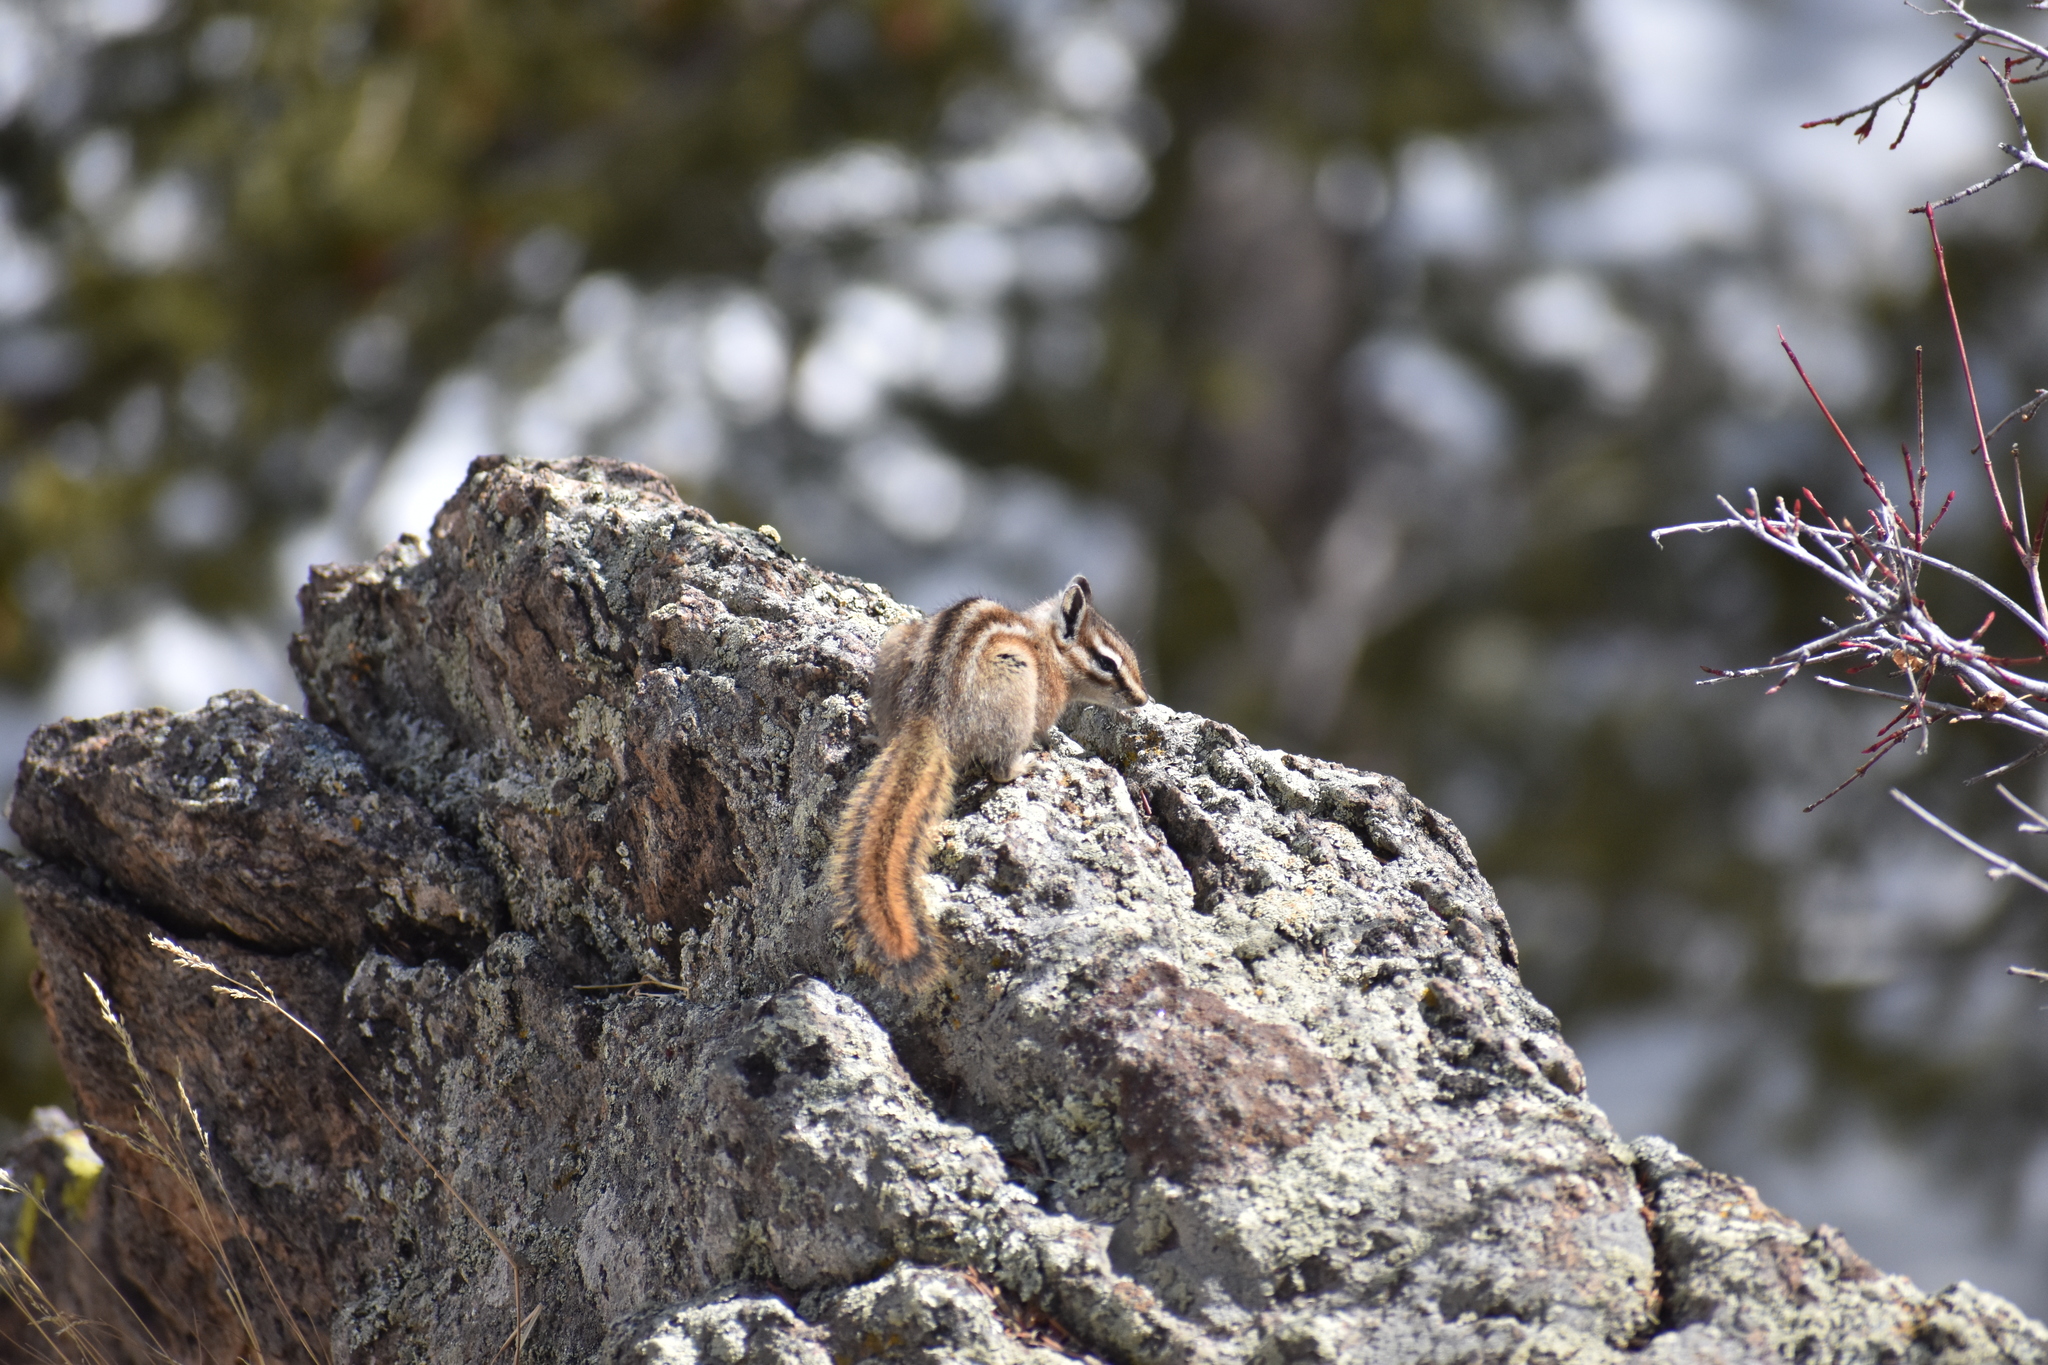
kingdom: Animalia
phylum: Chordata
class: Mammalia
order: Rodentia
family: Sciuridae
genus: Tamias
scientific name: Tamias umbrinus
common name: Uinta chipmunk
